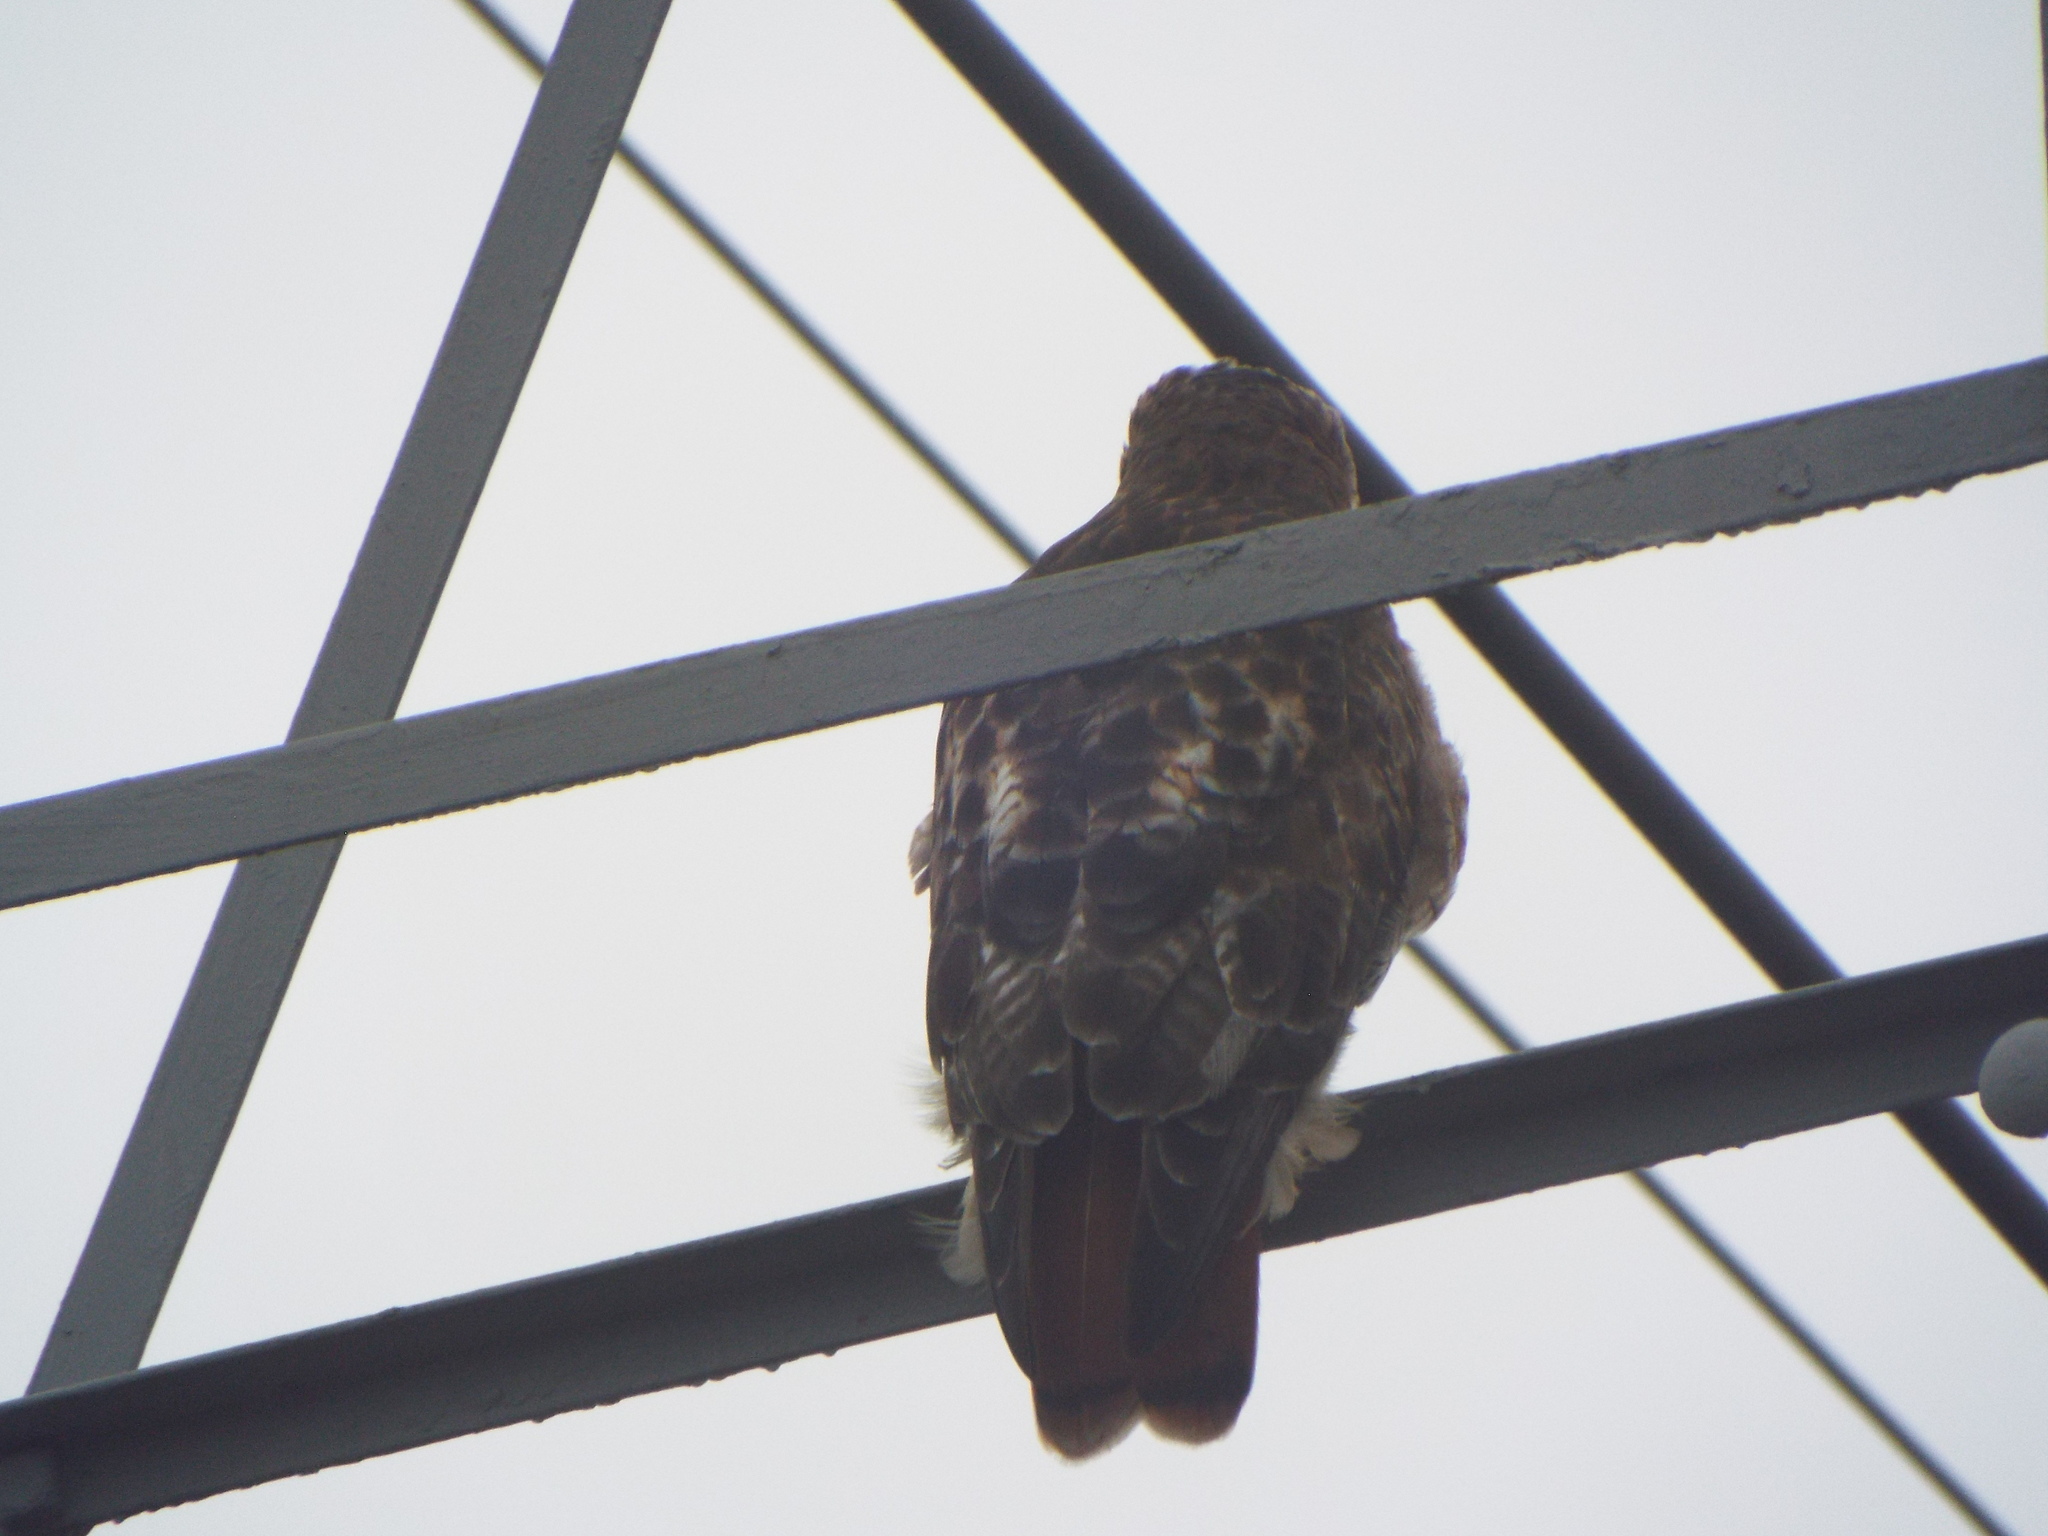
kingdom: Animalia
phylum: Chordata
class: Aves
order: Accipitriformes
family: Accipitridae
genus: Buteo
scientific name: Buteo jamaicensis
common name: Red-tailed hawk
